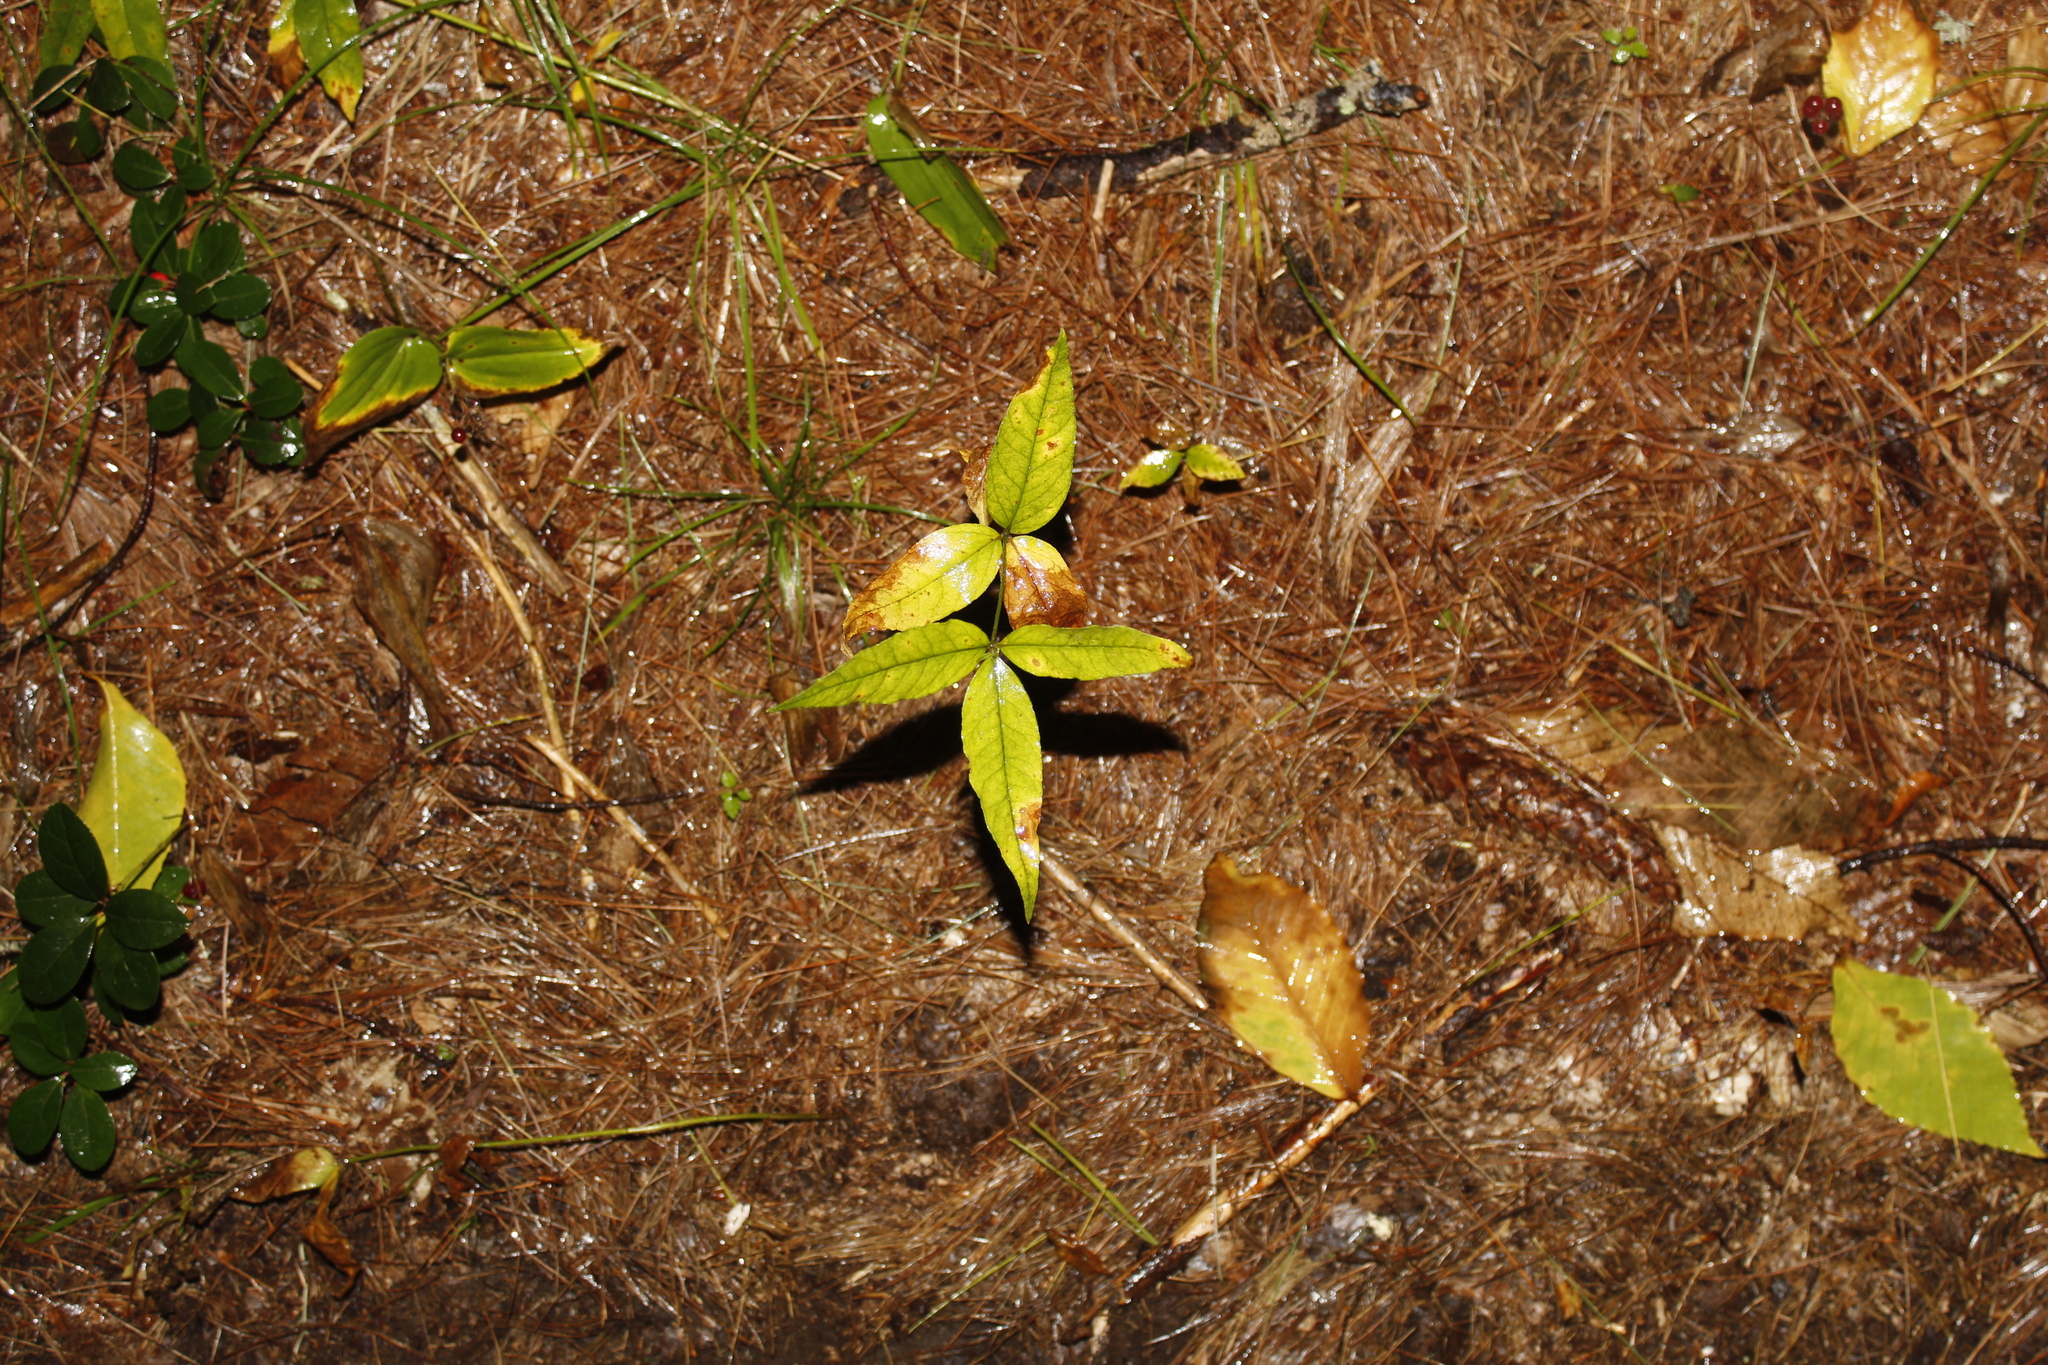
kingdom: Plantae
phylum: Tracheophyta
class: Magnoliopsida
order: Ericales
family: Primulaceae
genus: Lysimachia
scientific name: Lysimachia borealis
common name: American starflower
